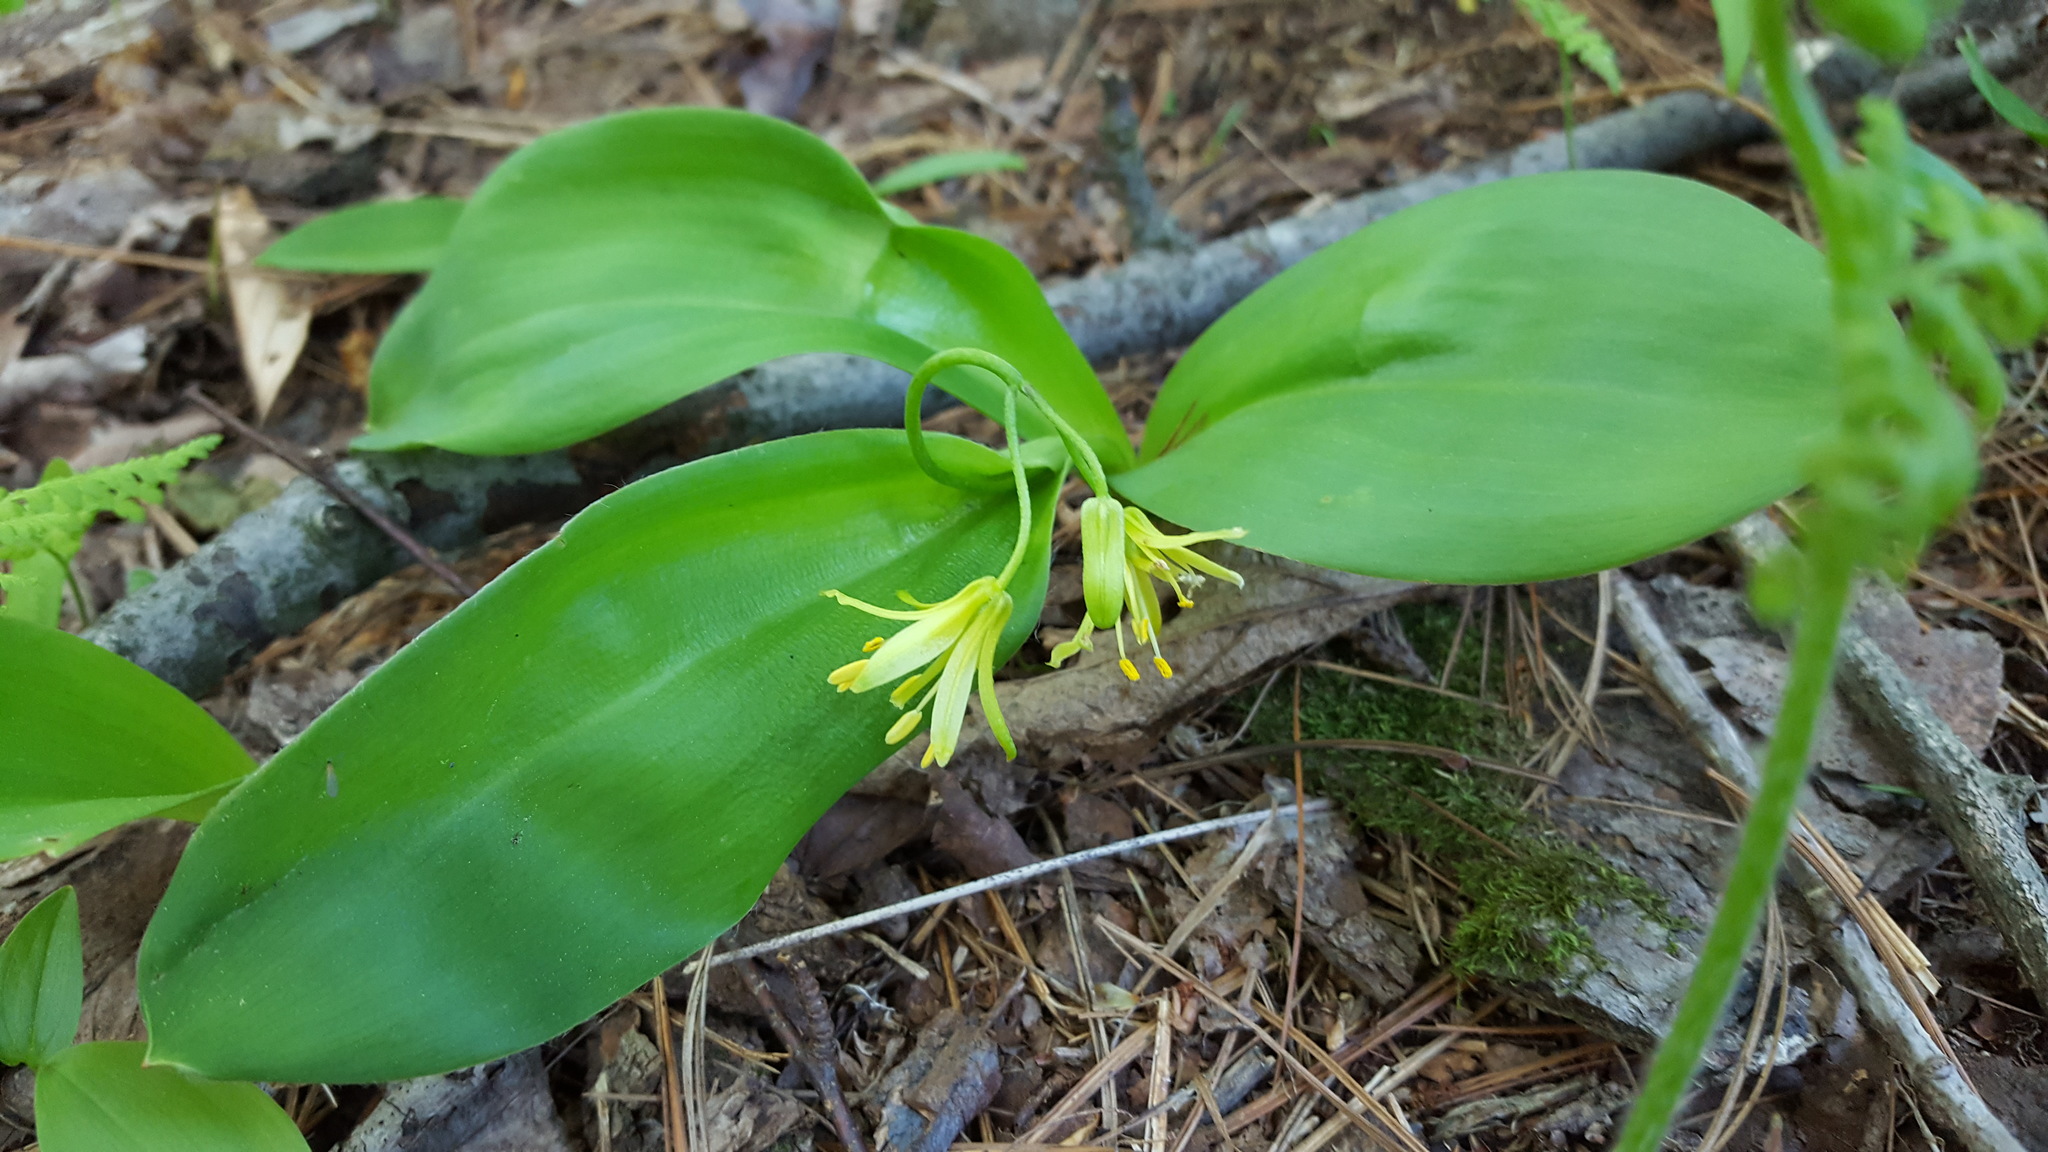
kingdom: Plantae
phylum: Tracheophyta
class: Liliopsida
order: Liliales
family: Liliaceae
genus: Clintonia
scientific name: Clintonia borealis
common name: Yellow clintonia
